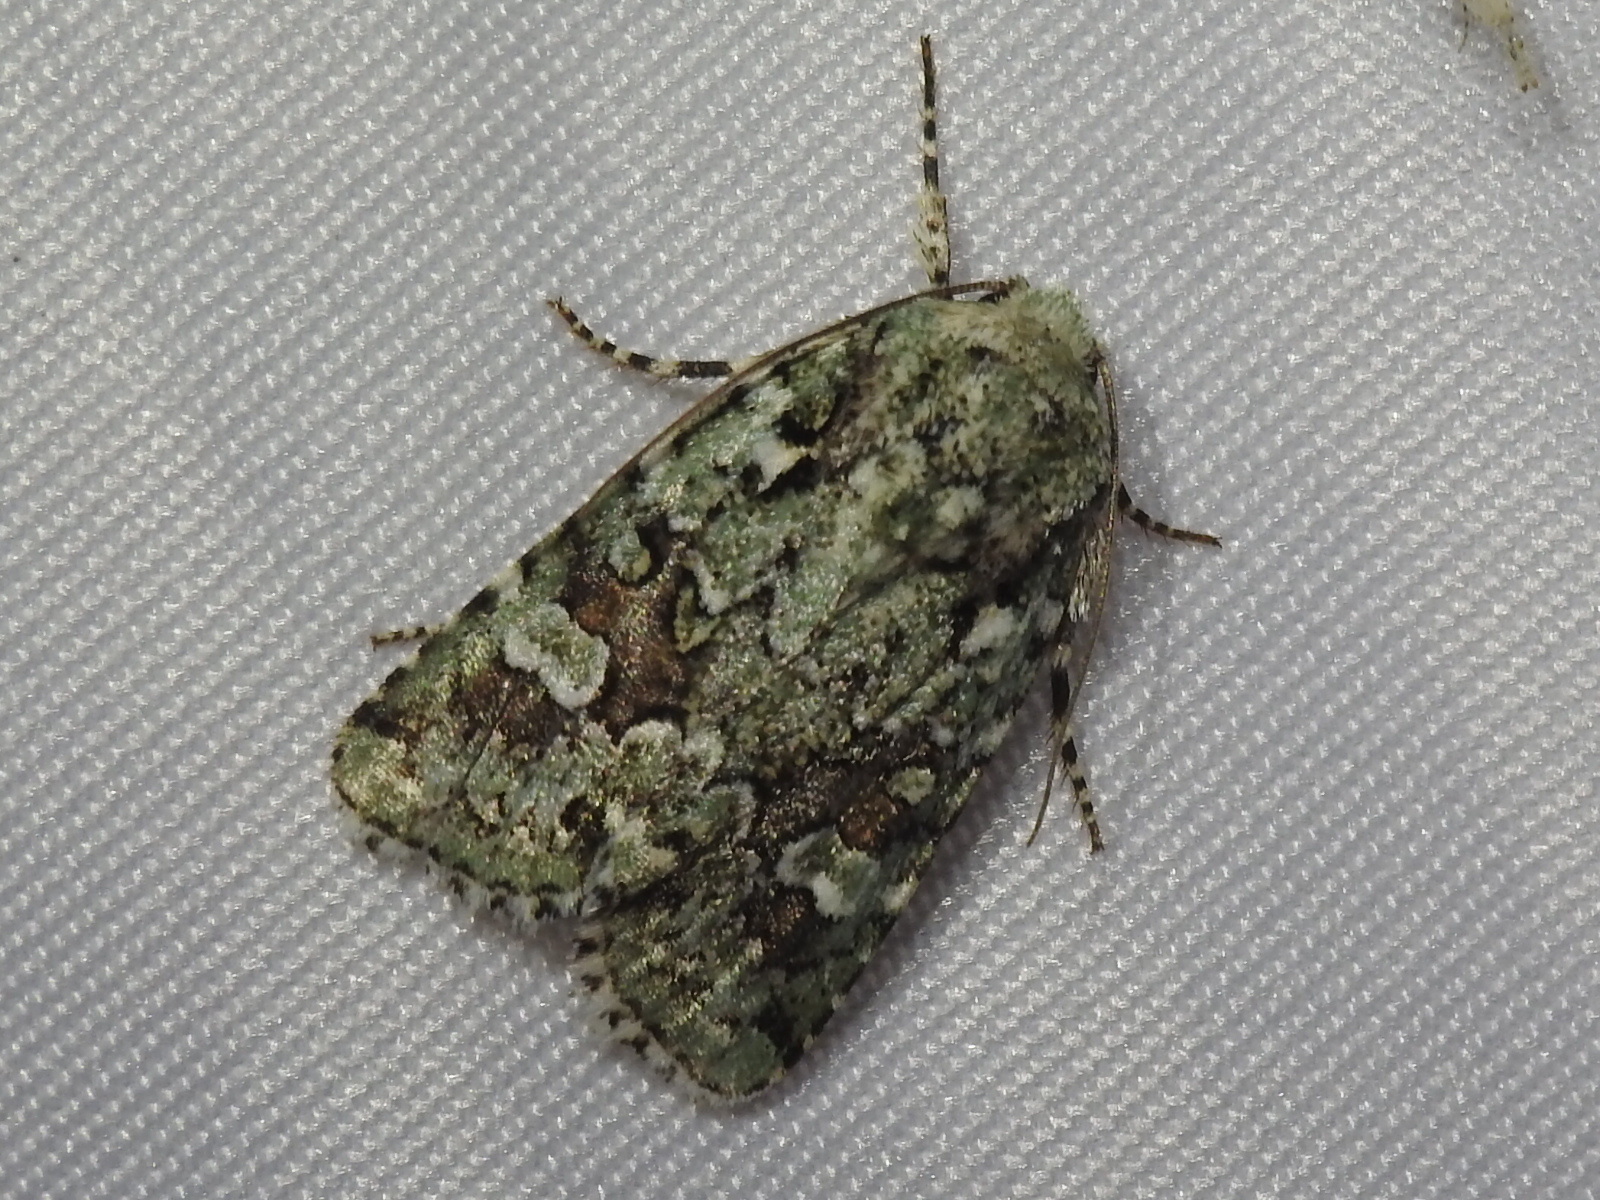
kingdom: Animalia
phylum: Arthropoda
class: Insecta
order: Lepidoptera
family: Noctuidae
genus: Lacinipolia
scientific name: Lacinipolia laudabilis
